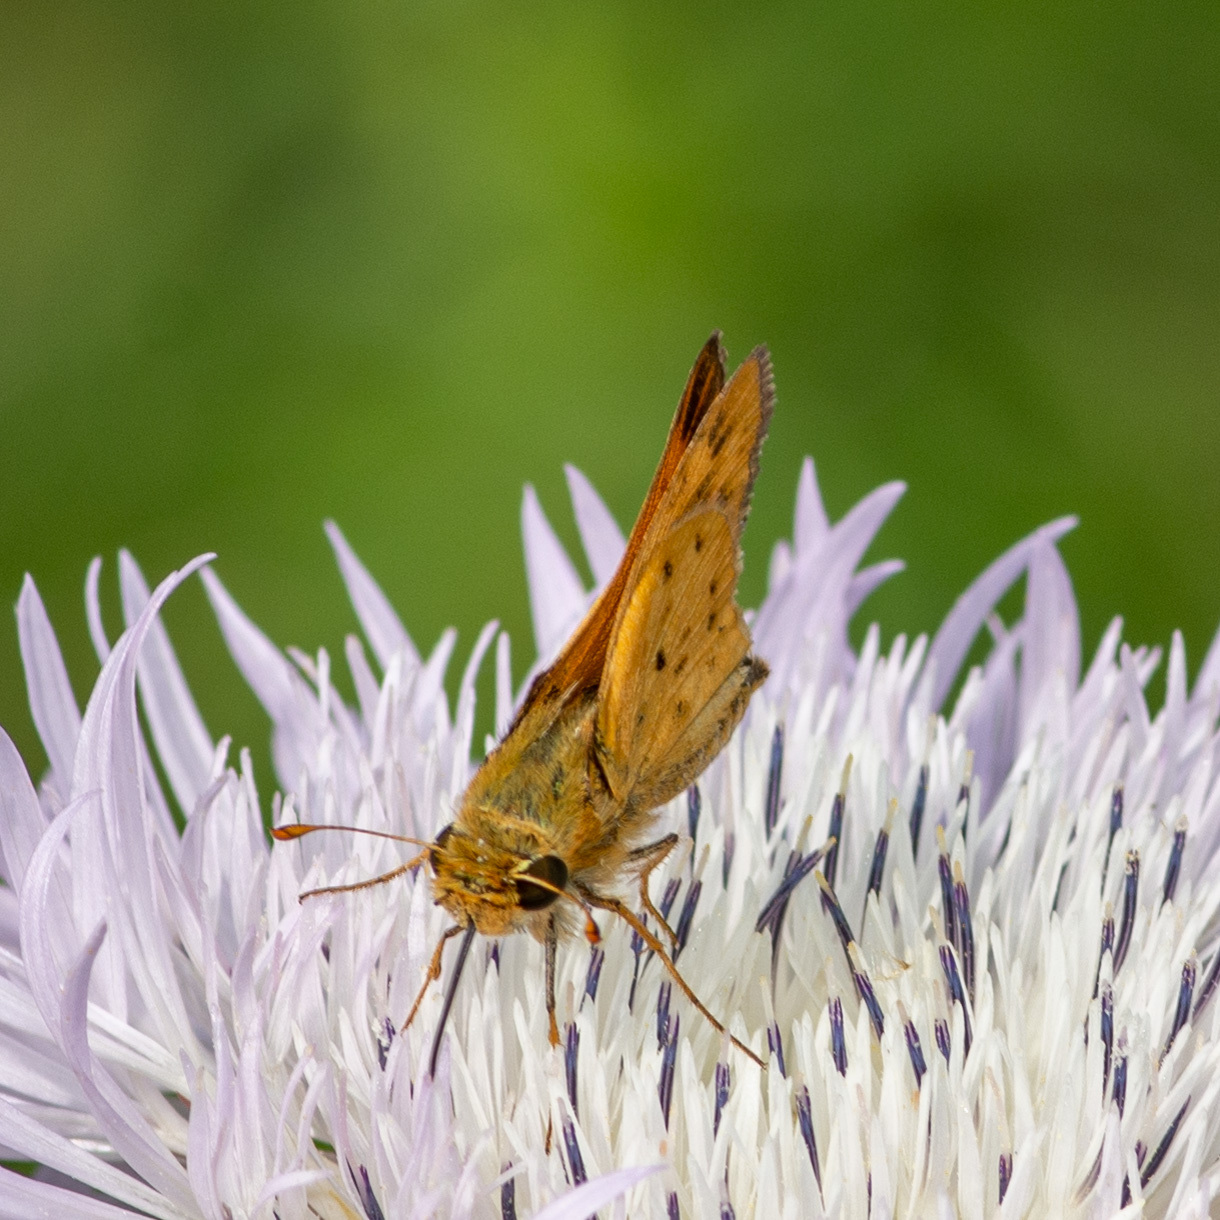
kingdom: Animalia
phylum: Arthropoda
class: Insecta
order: Lepidoptera
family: Hesperiidae
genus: Hylephila
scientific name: Hylephila phyleus
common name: Fiery skipper
